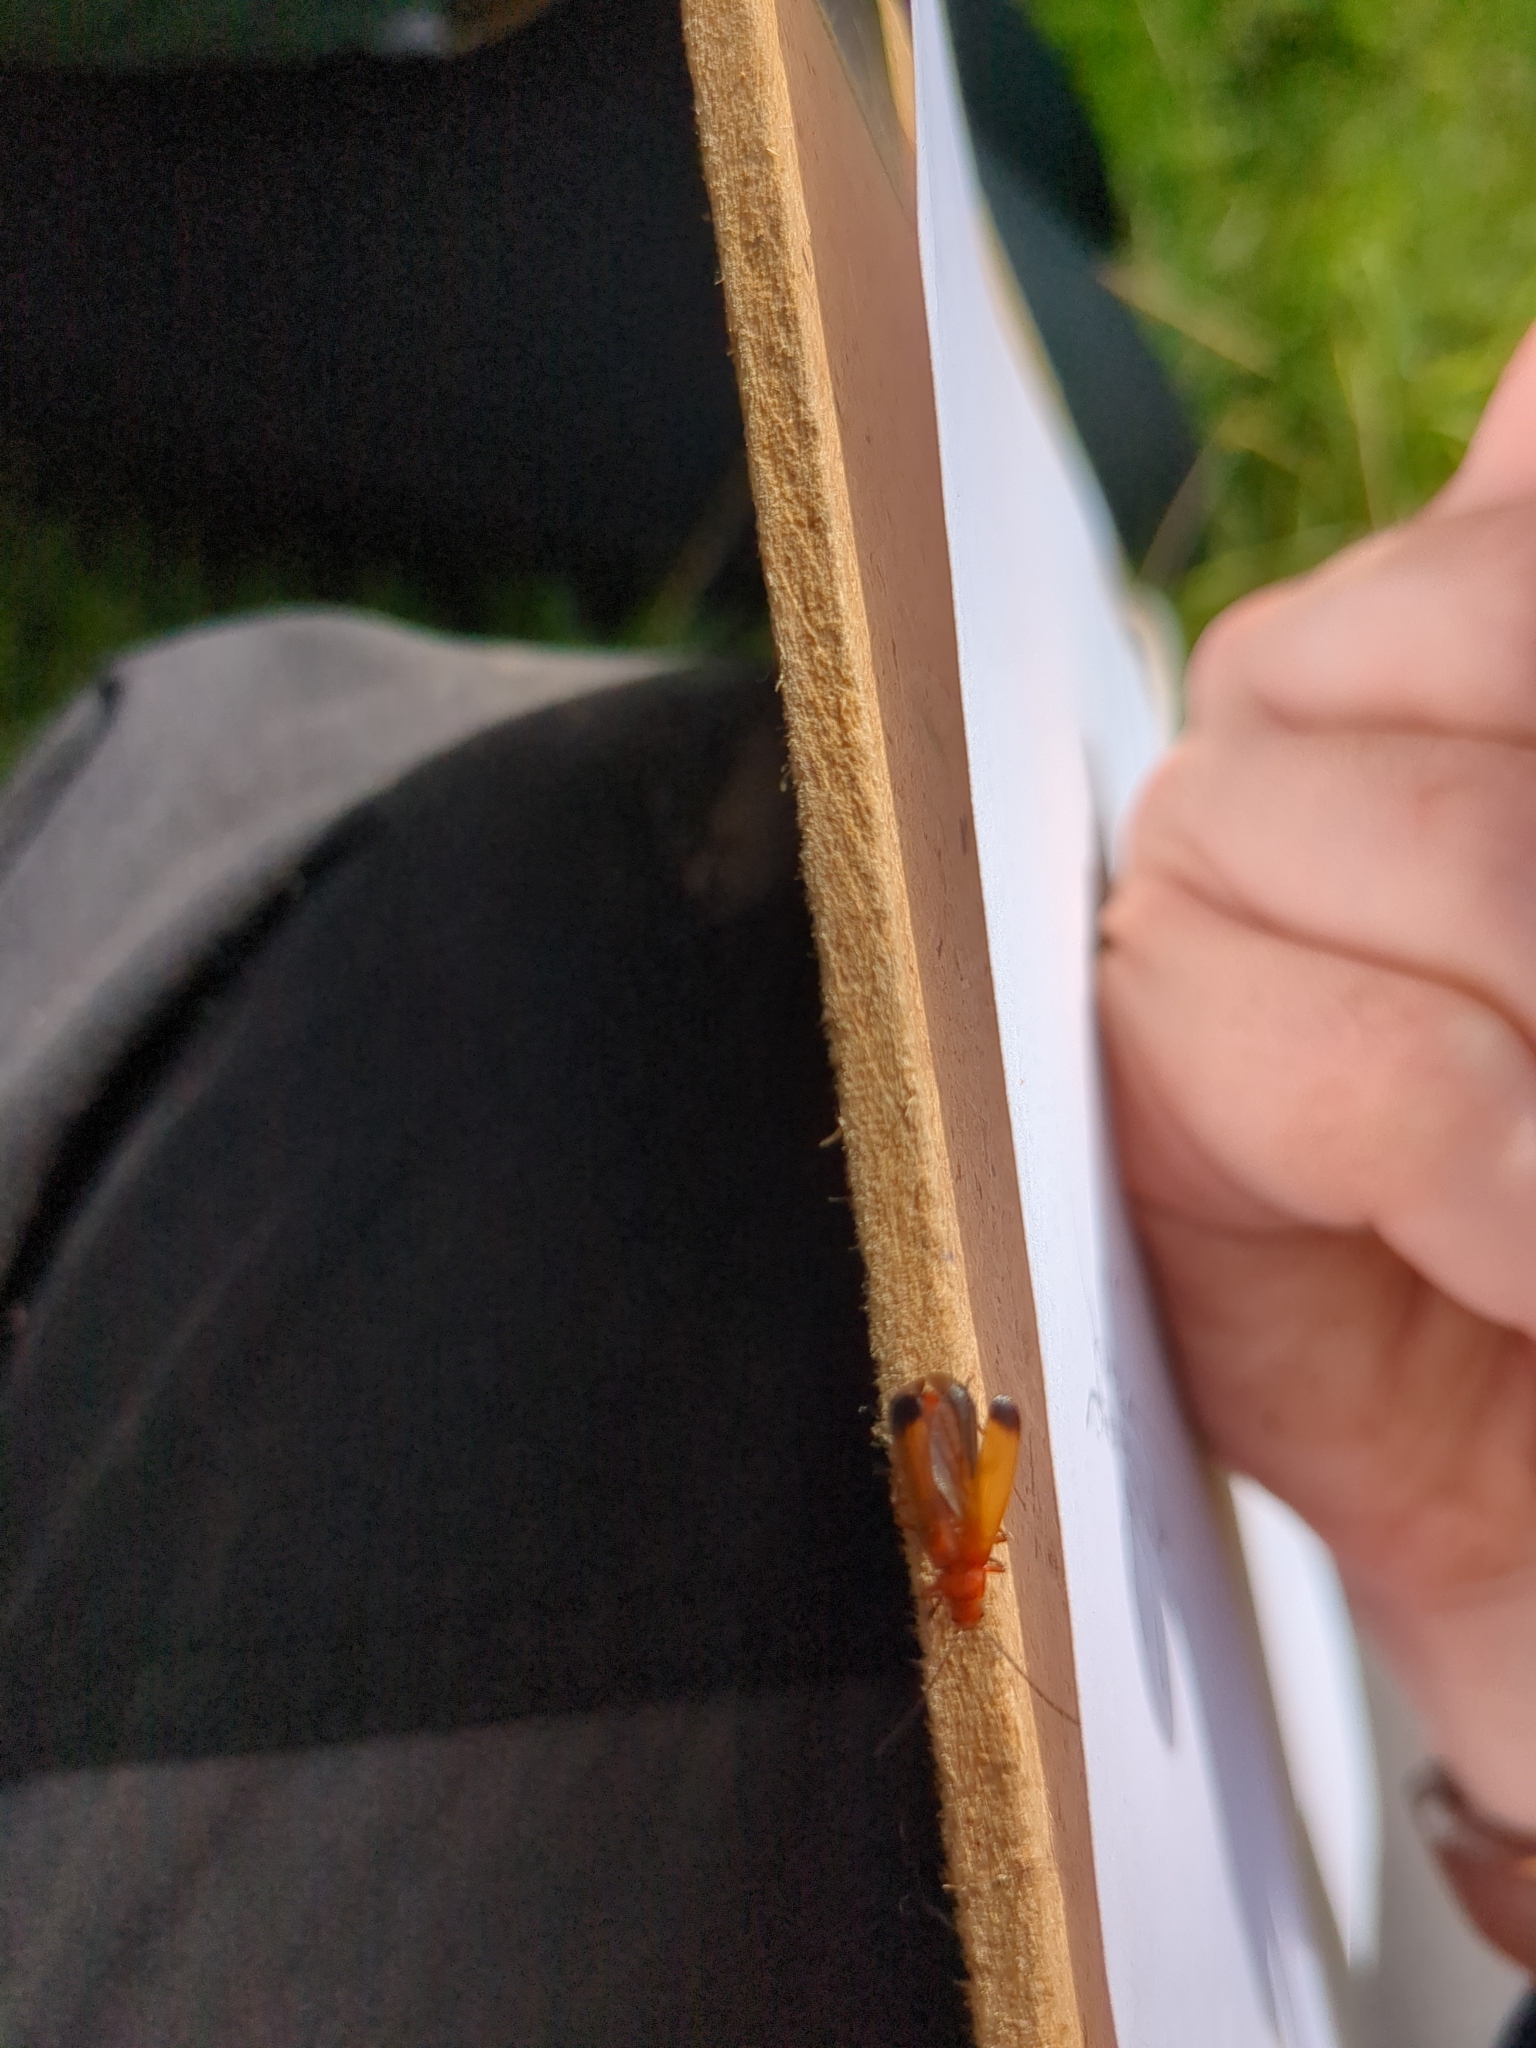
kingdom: Animalia
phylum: Arthropoda
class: Insecta
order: Coleoptera
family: Cantharidae
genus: Rhagonycha
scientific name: Rhagonycha fulva
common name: Common red soldier beetle
